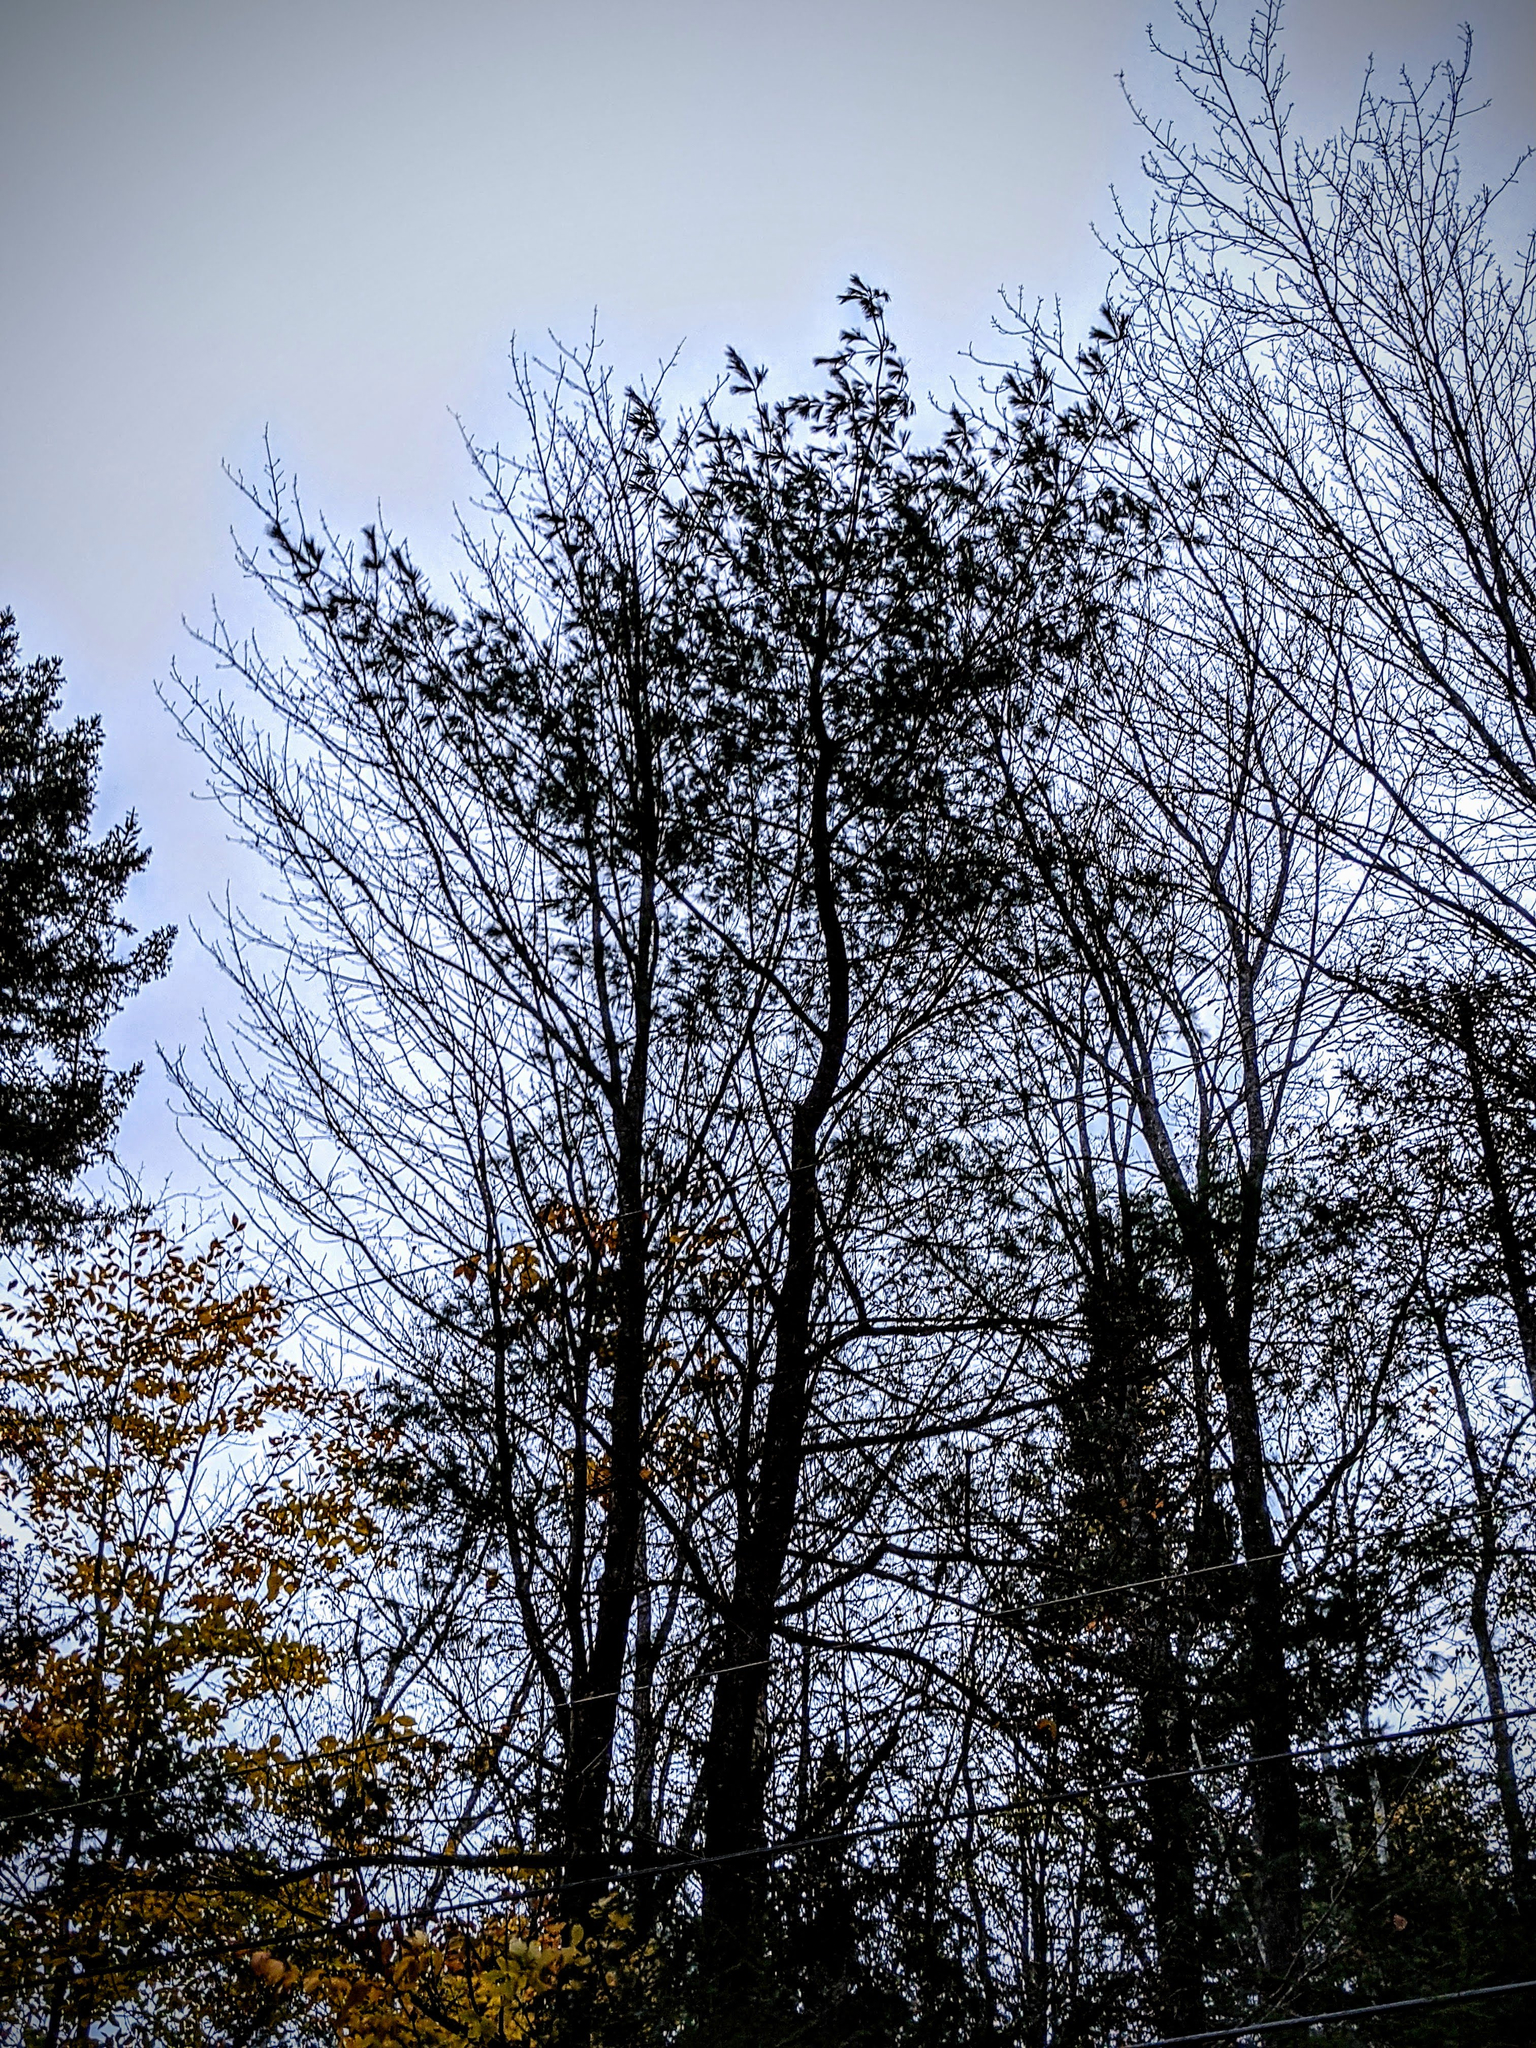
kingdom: Plantae
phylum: Tracheophyta
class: Pinopsida
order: Pinales
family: Pinaceae
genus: Pinus
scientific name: Pinus strobus
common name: Weymouth pine
